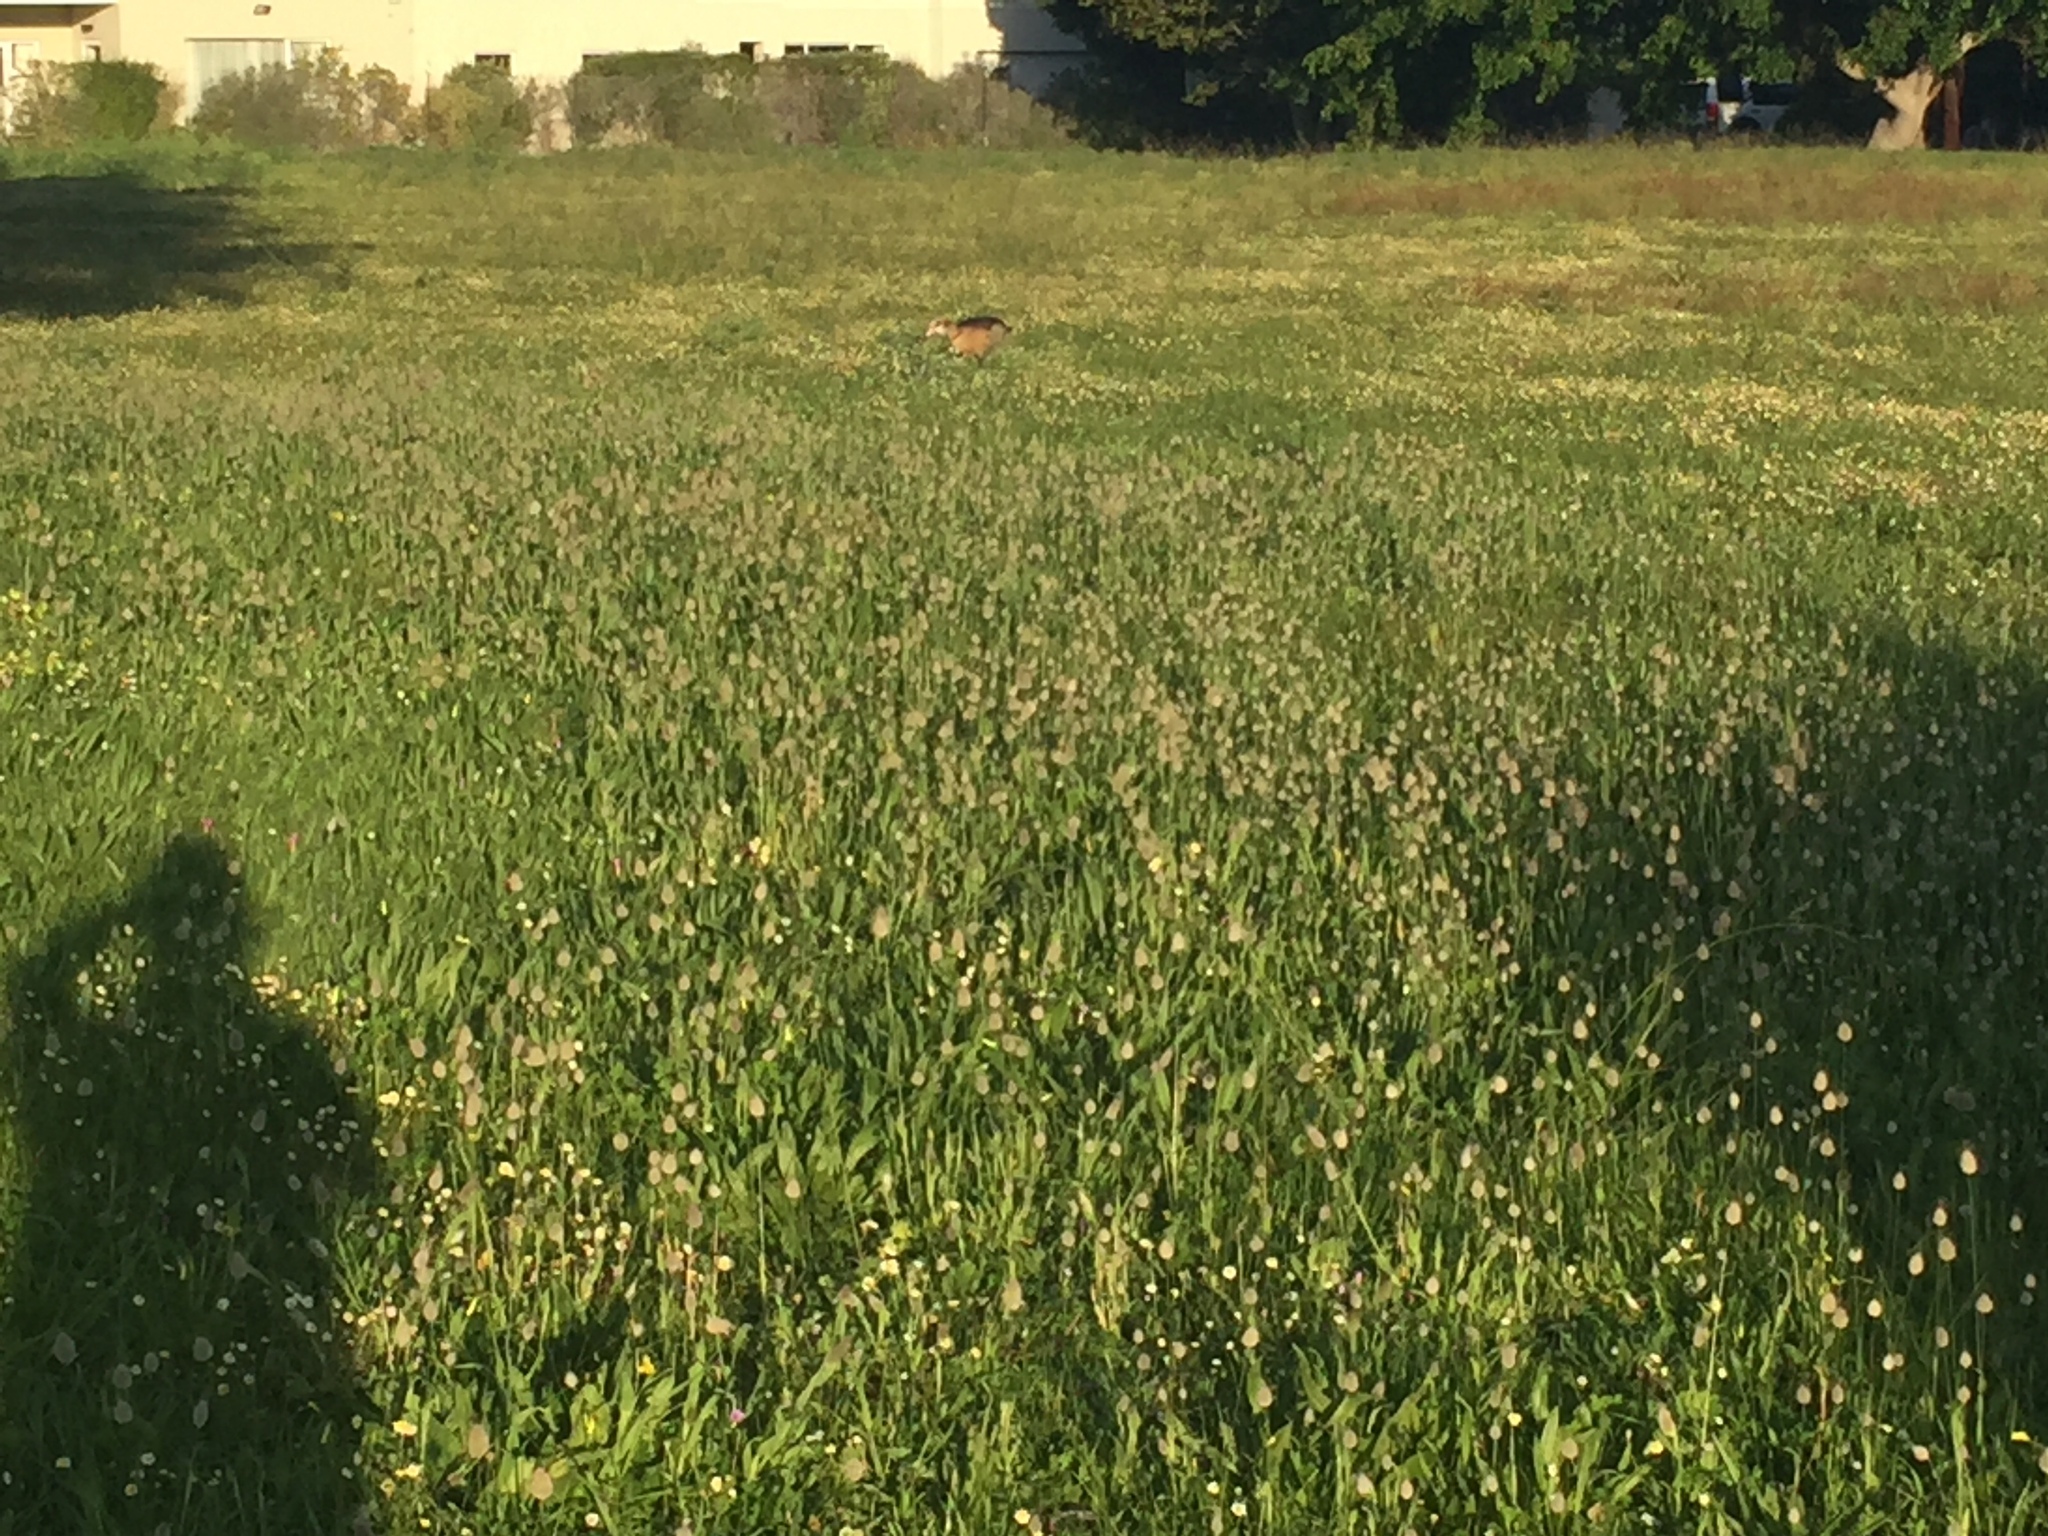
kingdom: Plantae
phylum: Tracheophyta
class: Liliopsida
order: Poales
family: Poaceae
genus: Lagurus
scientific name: Lagurus ovatus
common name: Hare's-tail
